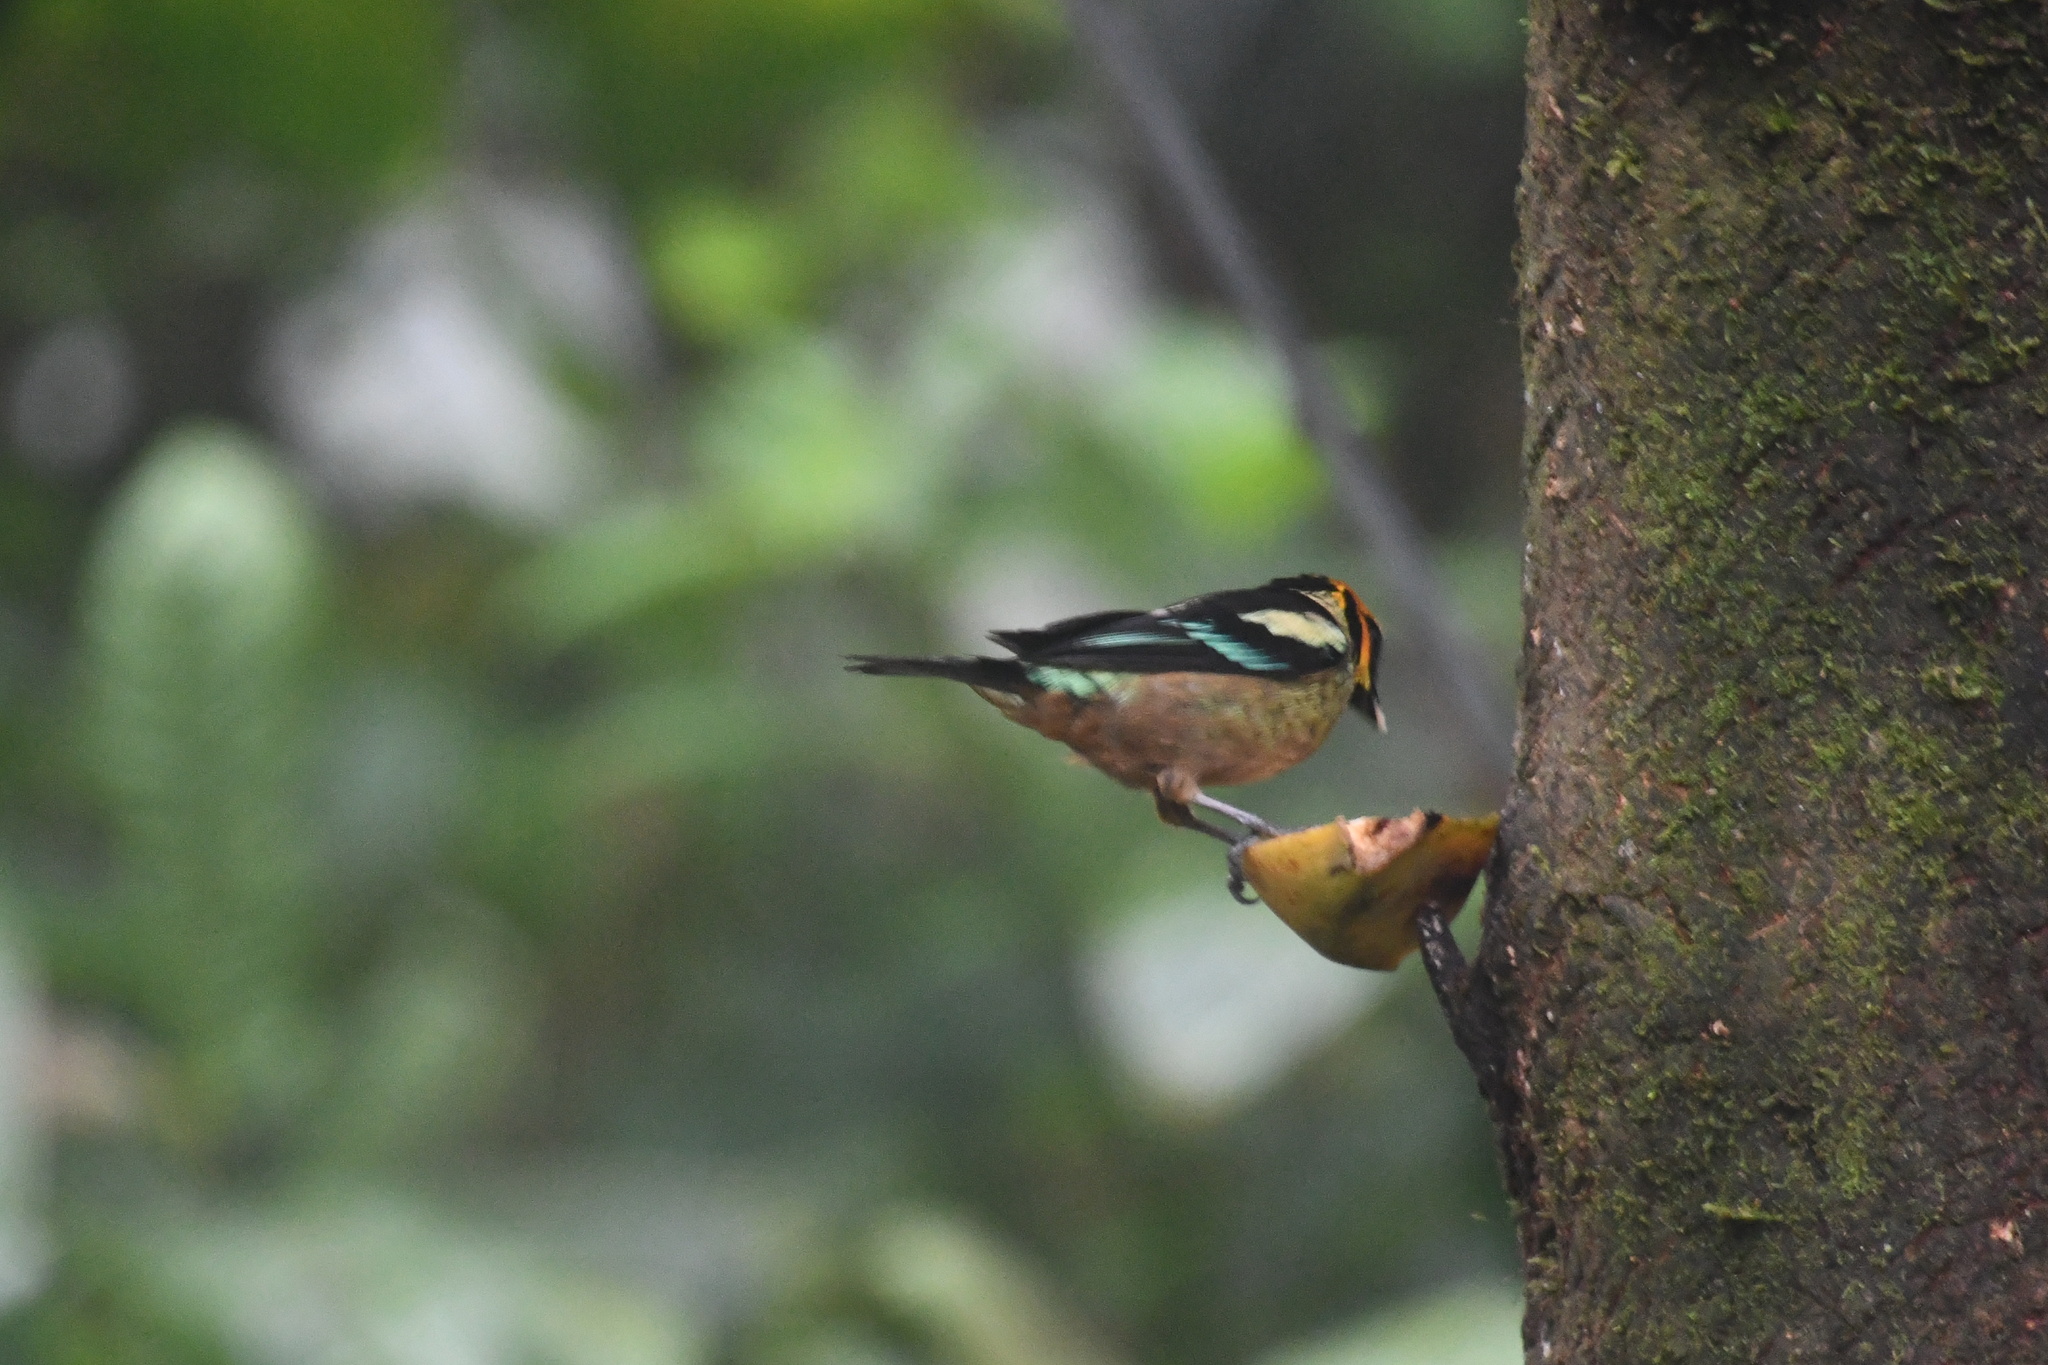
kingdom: Animalia
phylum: Chordata
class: Aves
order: Passeriformes
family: Thraupidae
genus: Tangara
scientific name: Tangara parzudakii
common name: Flame-faced tanager
